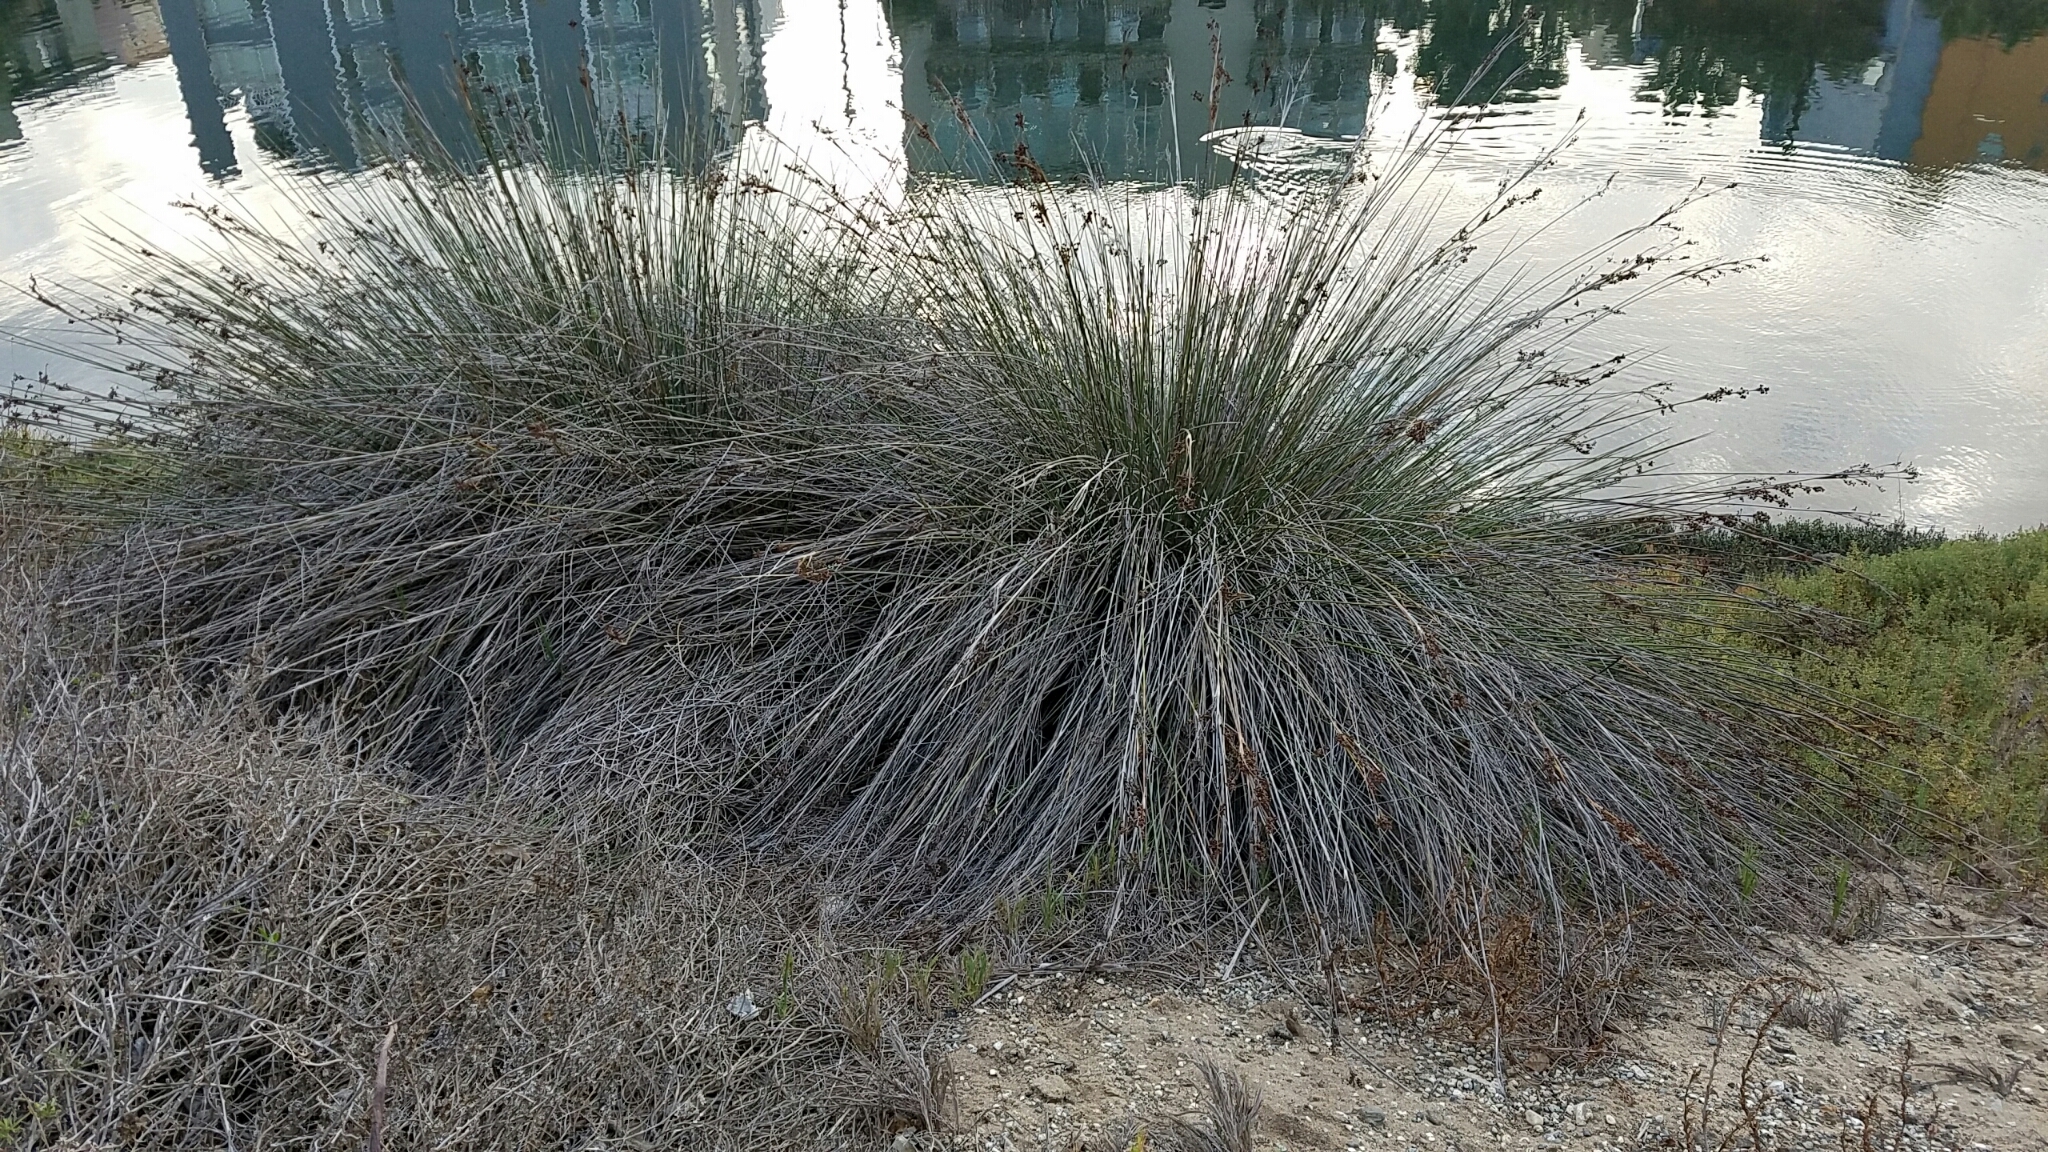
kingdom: Plantae
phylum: Tracheophyta
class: Liliopsida
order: Poales
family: Juncaceae
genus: Juncus
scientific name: Juncus acutus
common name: Sharp rush
